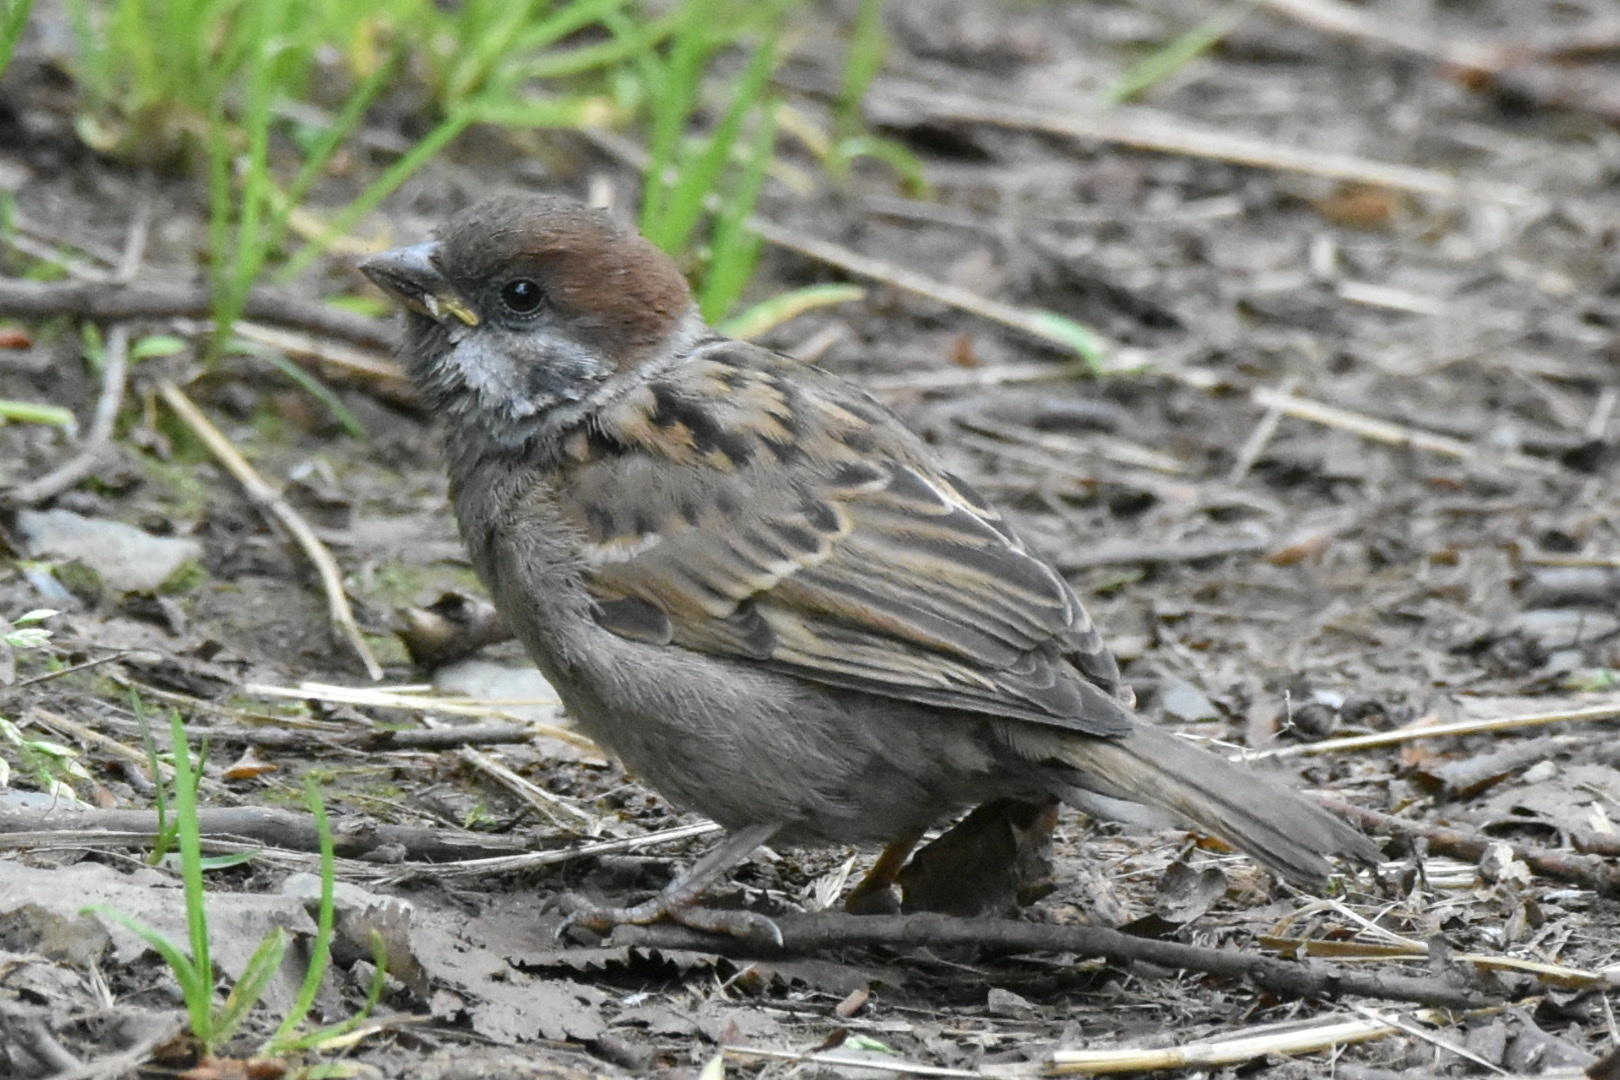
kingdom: Animalia
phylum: Chordata
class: Aves
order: Passeriformes
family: Passeridae
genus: Passer
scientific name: Passer montanus
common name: Eurasian tree sparrow
